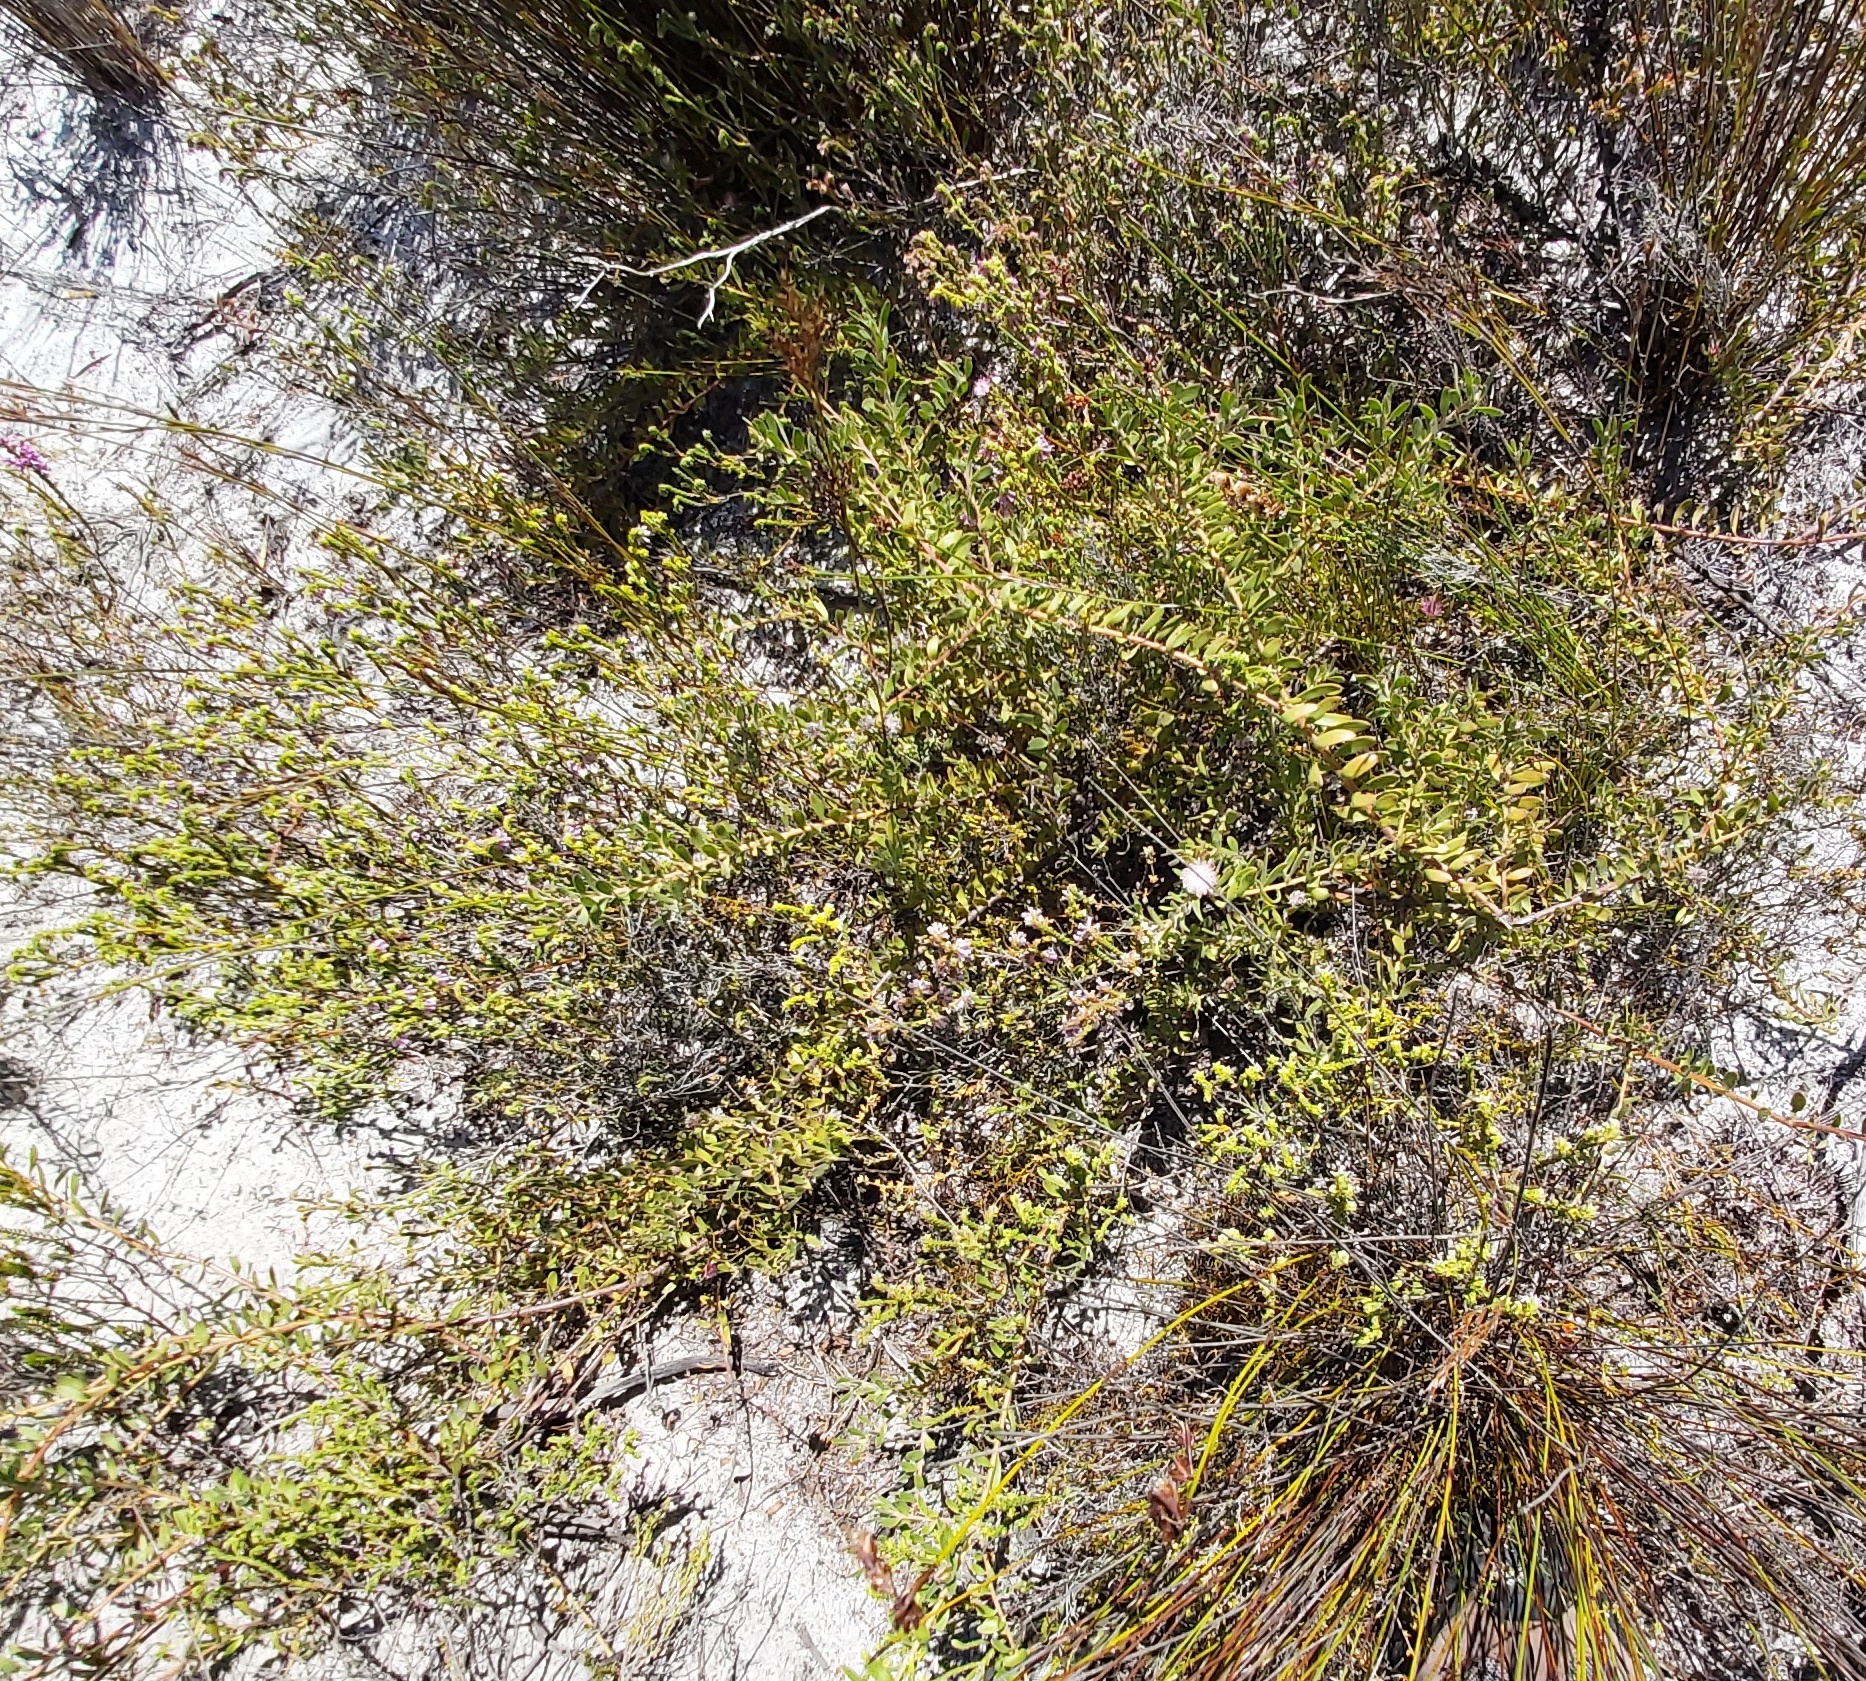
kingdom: Plantae
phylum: Tracheophyta
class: Magnoliopsida
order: Proteales
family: Proteaceae
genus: Diastella
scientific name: Diastella divaricata
